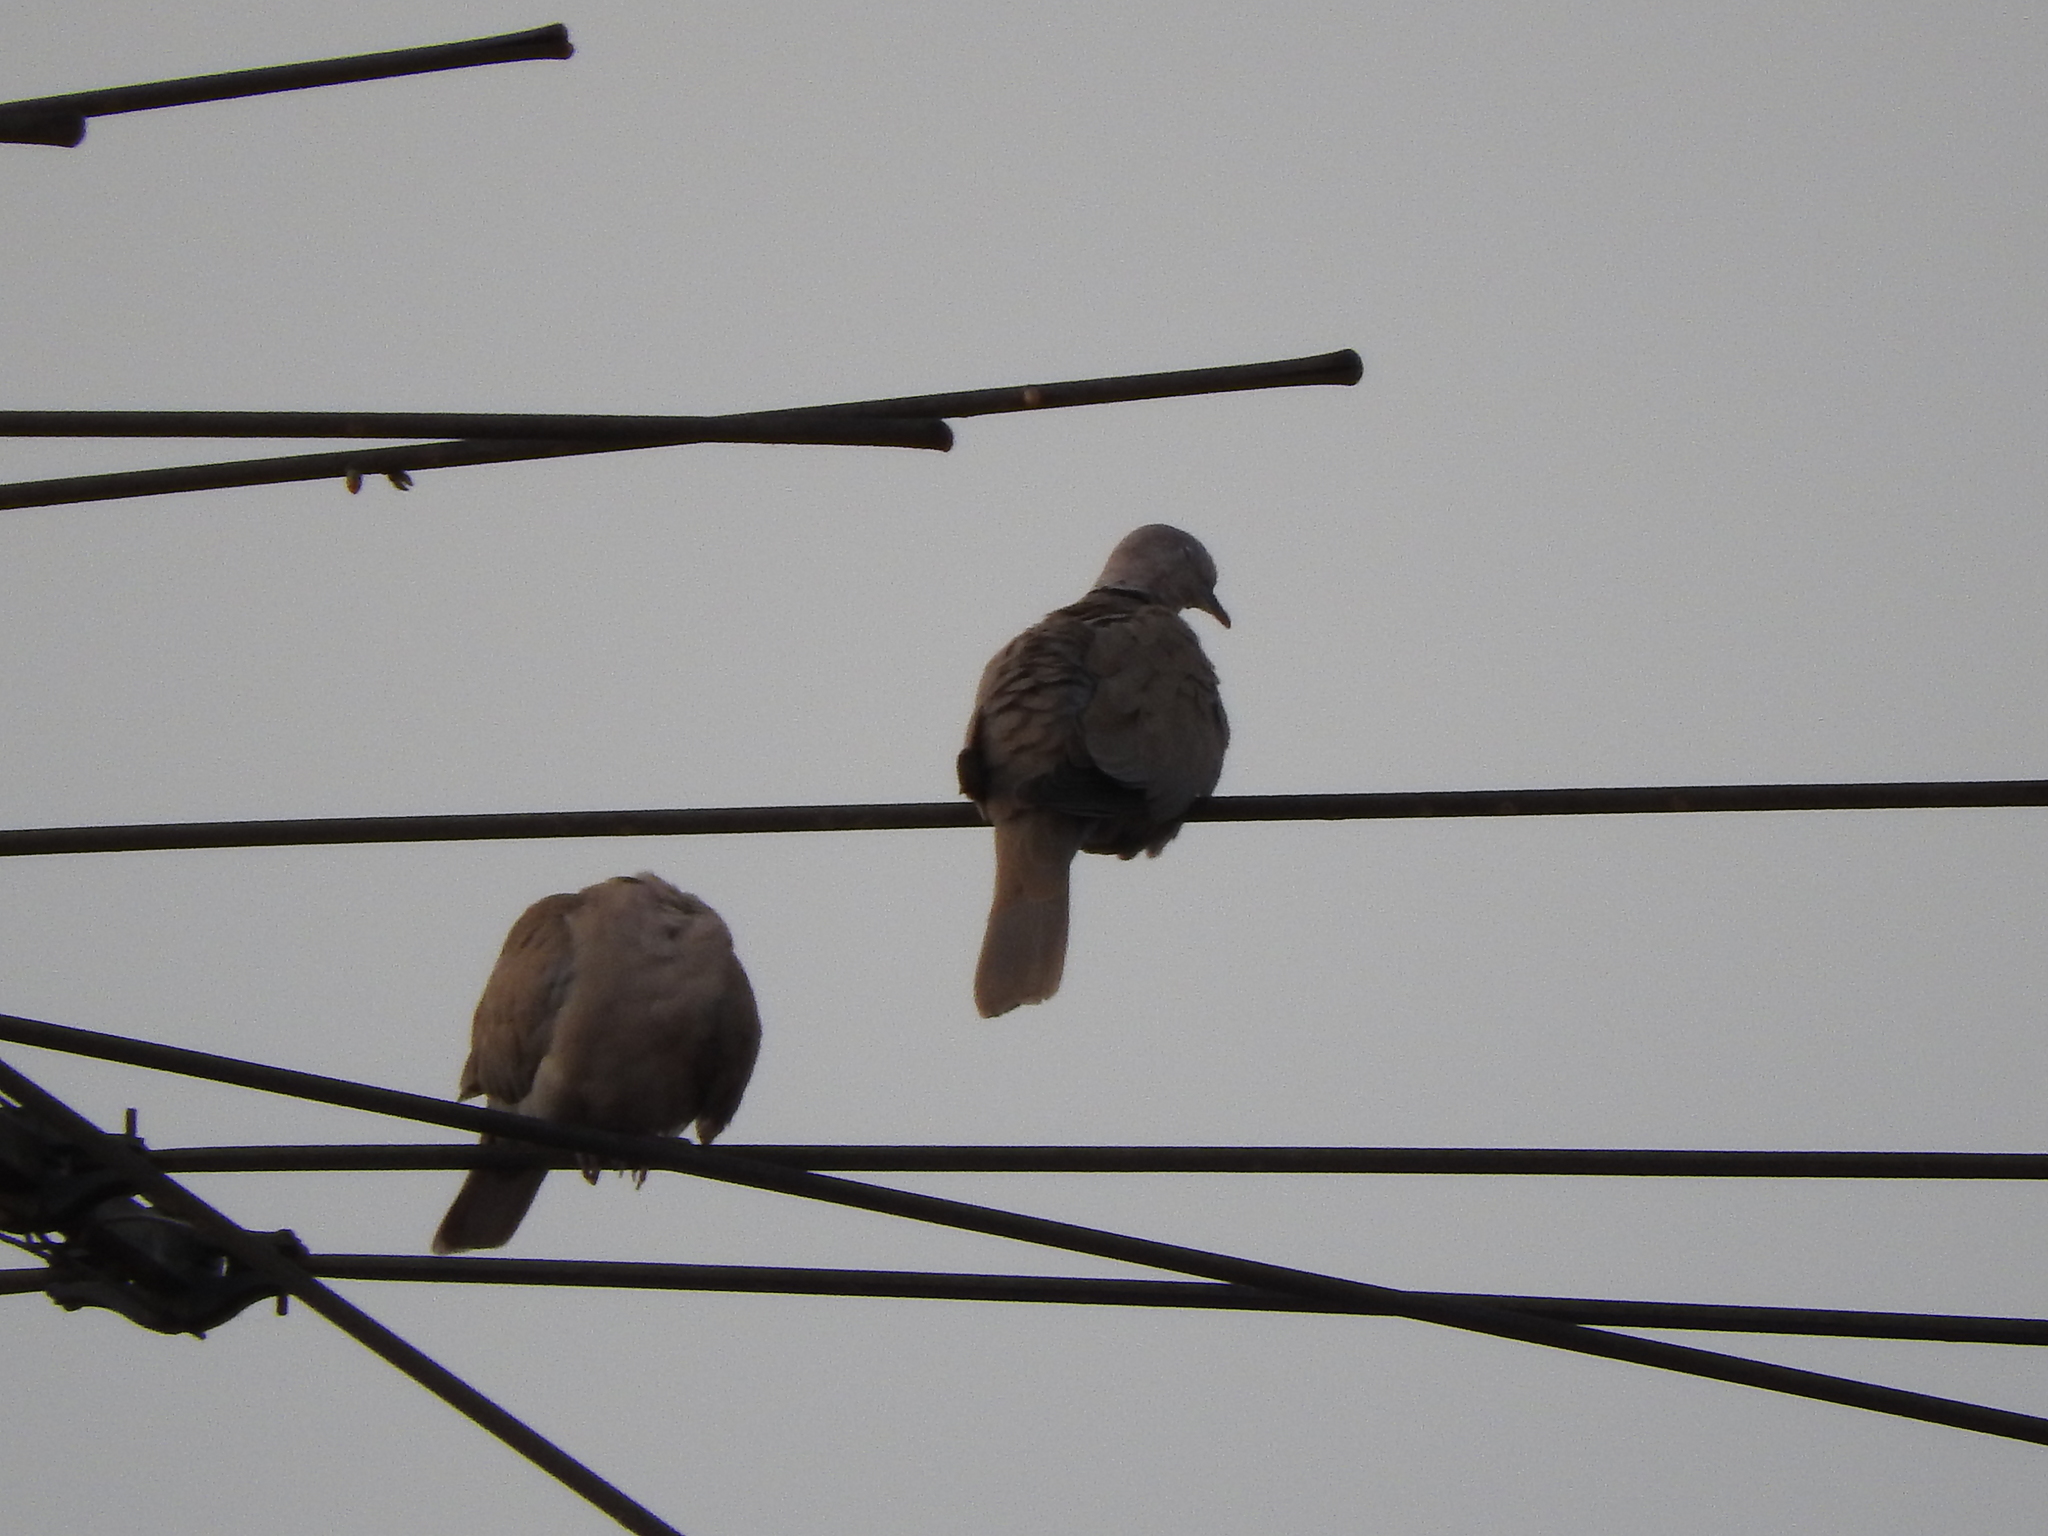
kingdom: Animalia
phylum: Chordata
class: Aves
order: Columbiformes
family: Columbidae
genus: Streptopelia
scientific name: Streptopelia decaocto
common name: Eurasian collared dove
